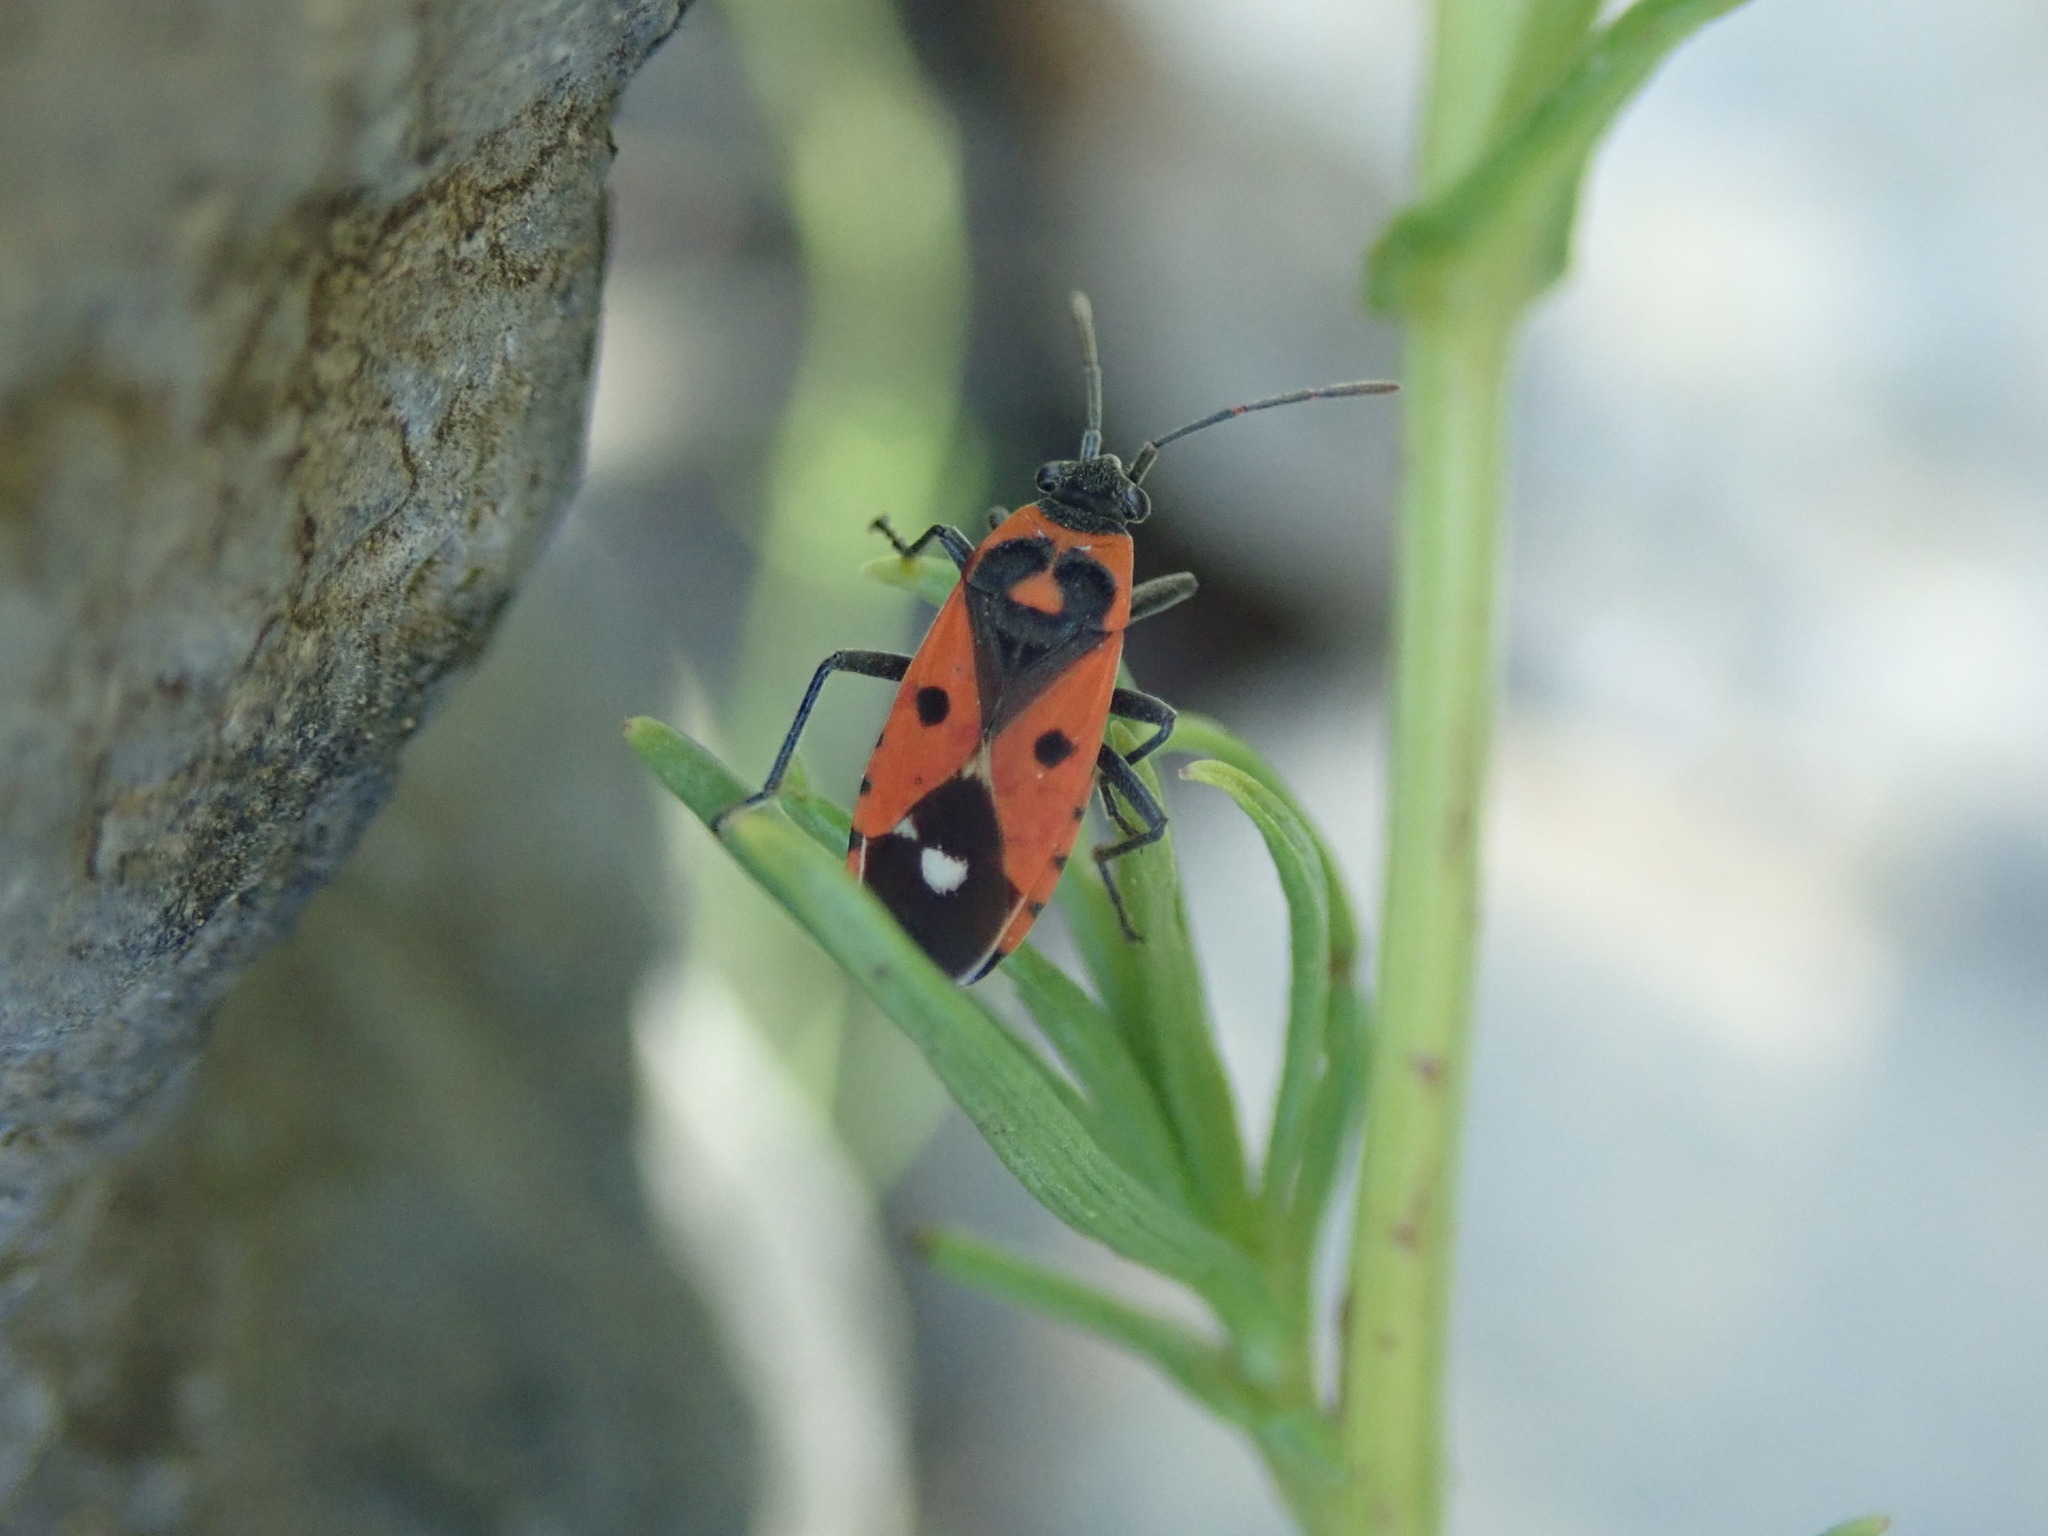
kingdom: Animalia
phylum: Arthropoda
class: Insecta
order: Hemiptera
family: Lygaeidae
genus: Melanocoryphus
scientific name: Melanocoryphus albomaculatus
